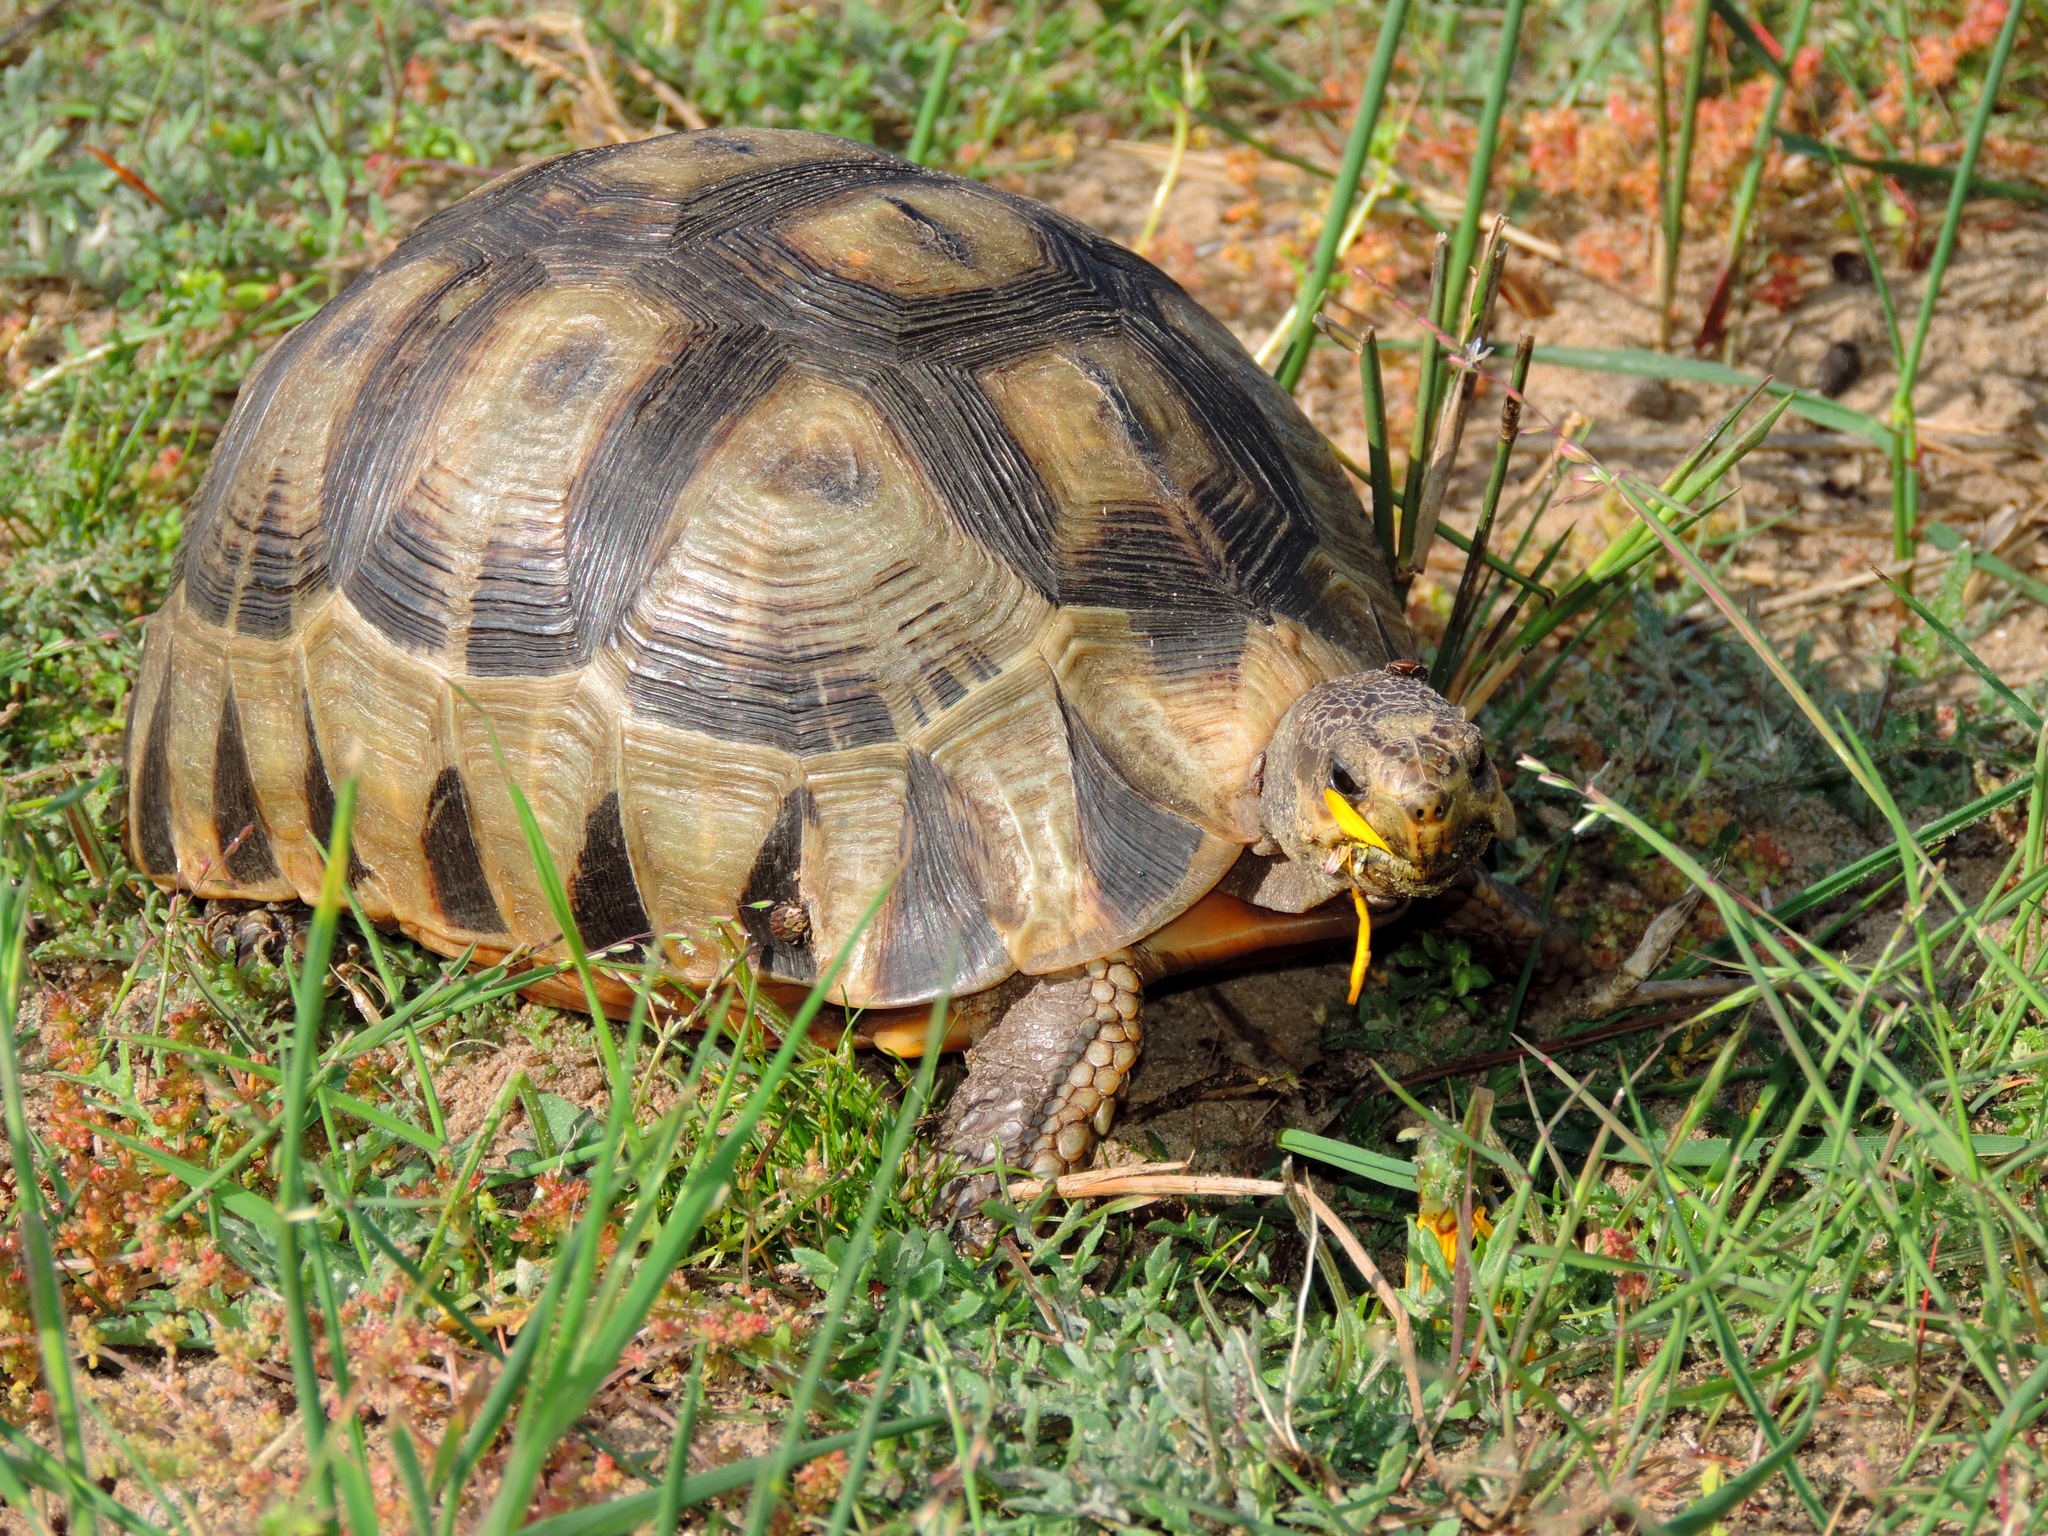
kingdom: Animalia
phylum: Chordata
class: Testudines
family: Testudinidae
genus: Chersina
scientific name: Chersina angulata
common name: South african bowsprit tortoise
